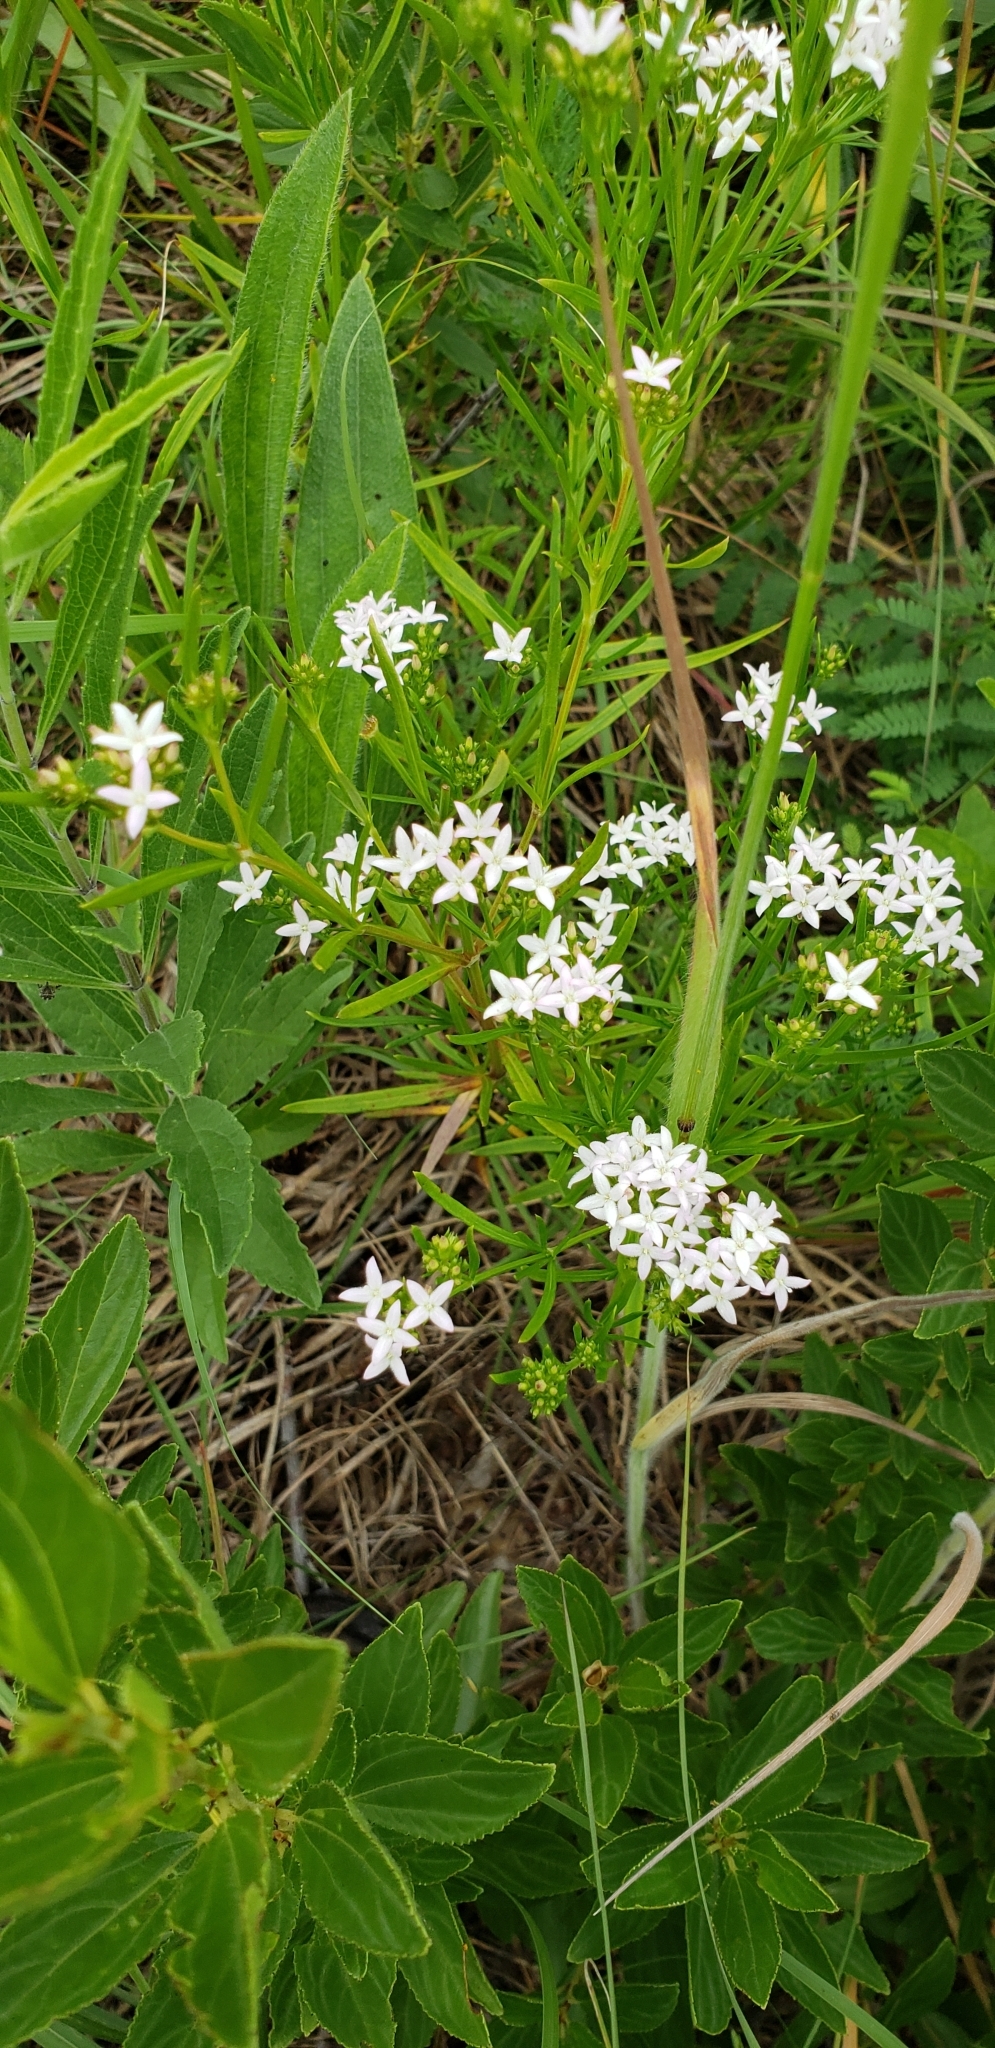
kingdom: Plantae
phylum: Tracheophyta
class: Magnoliopsida
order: Gentianales
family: Rubiaceae
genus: Stenaria
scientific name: Stenaria nigricans
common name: Diamondflowers
